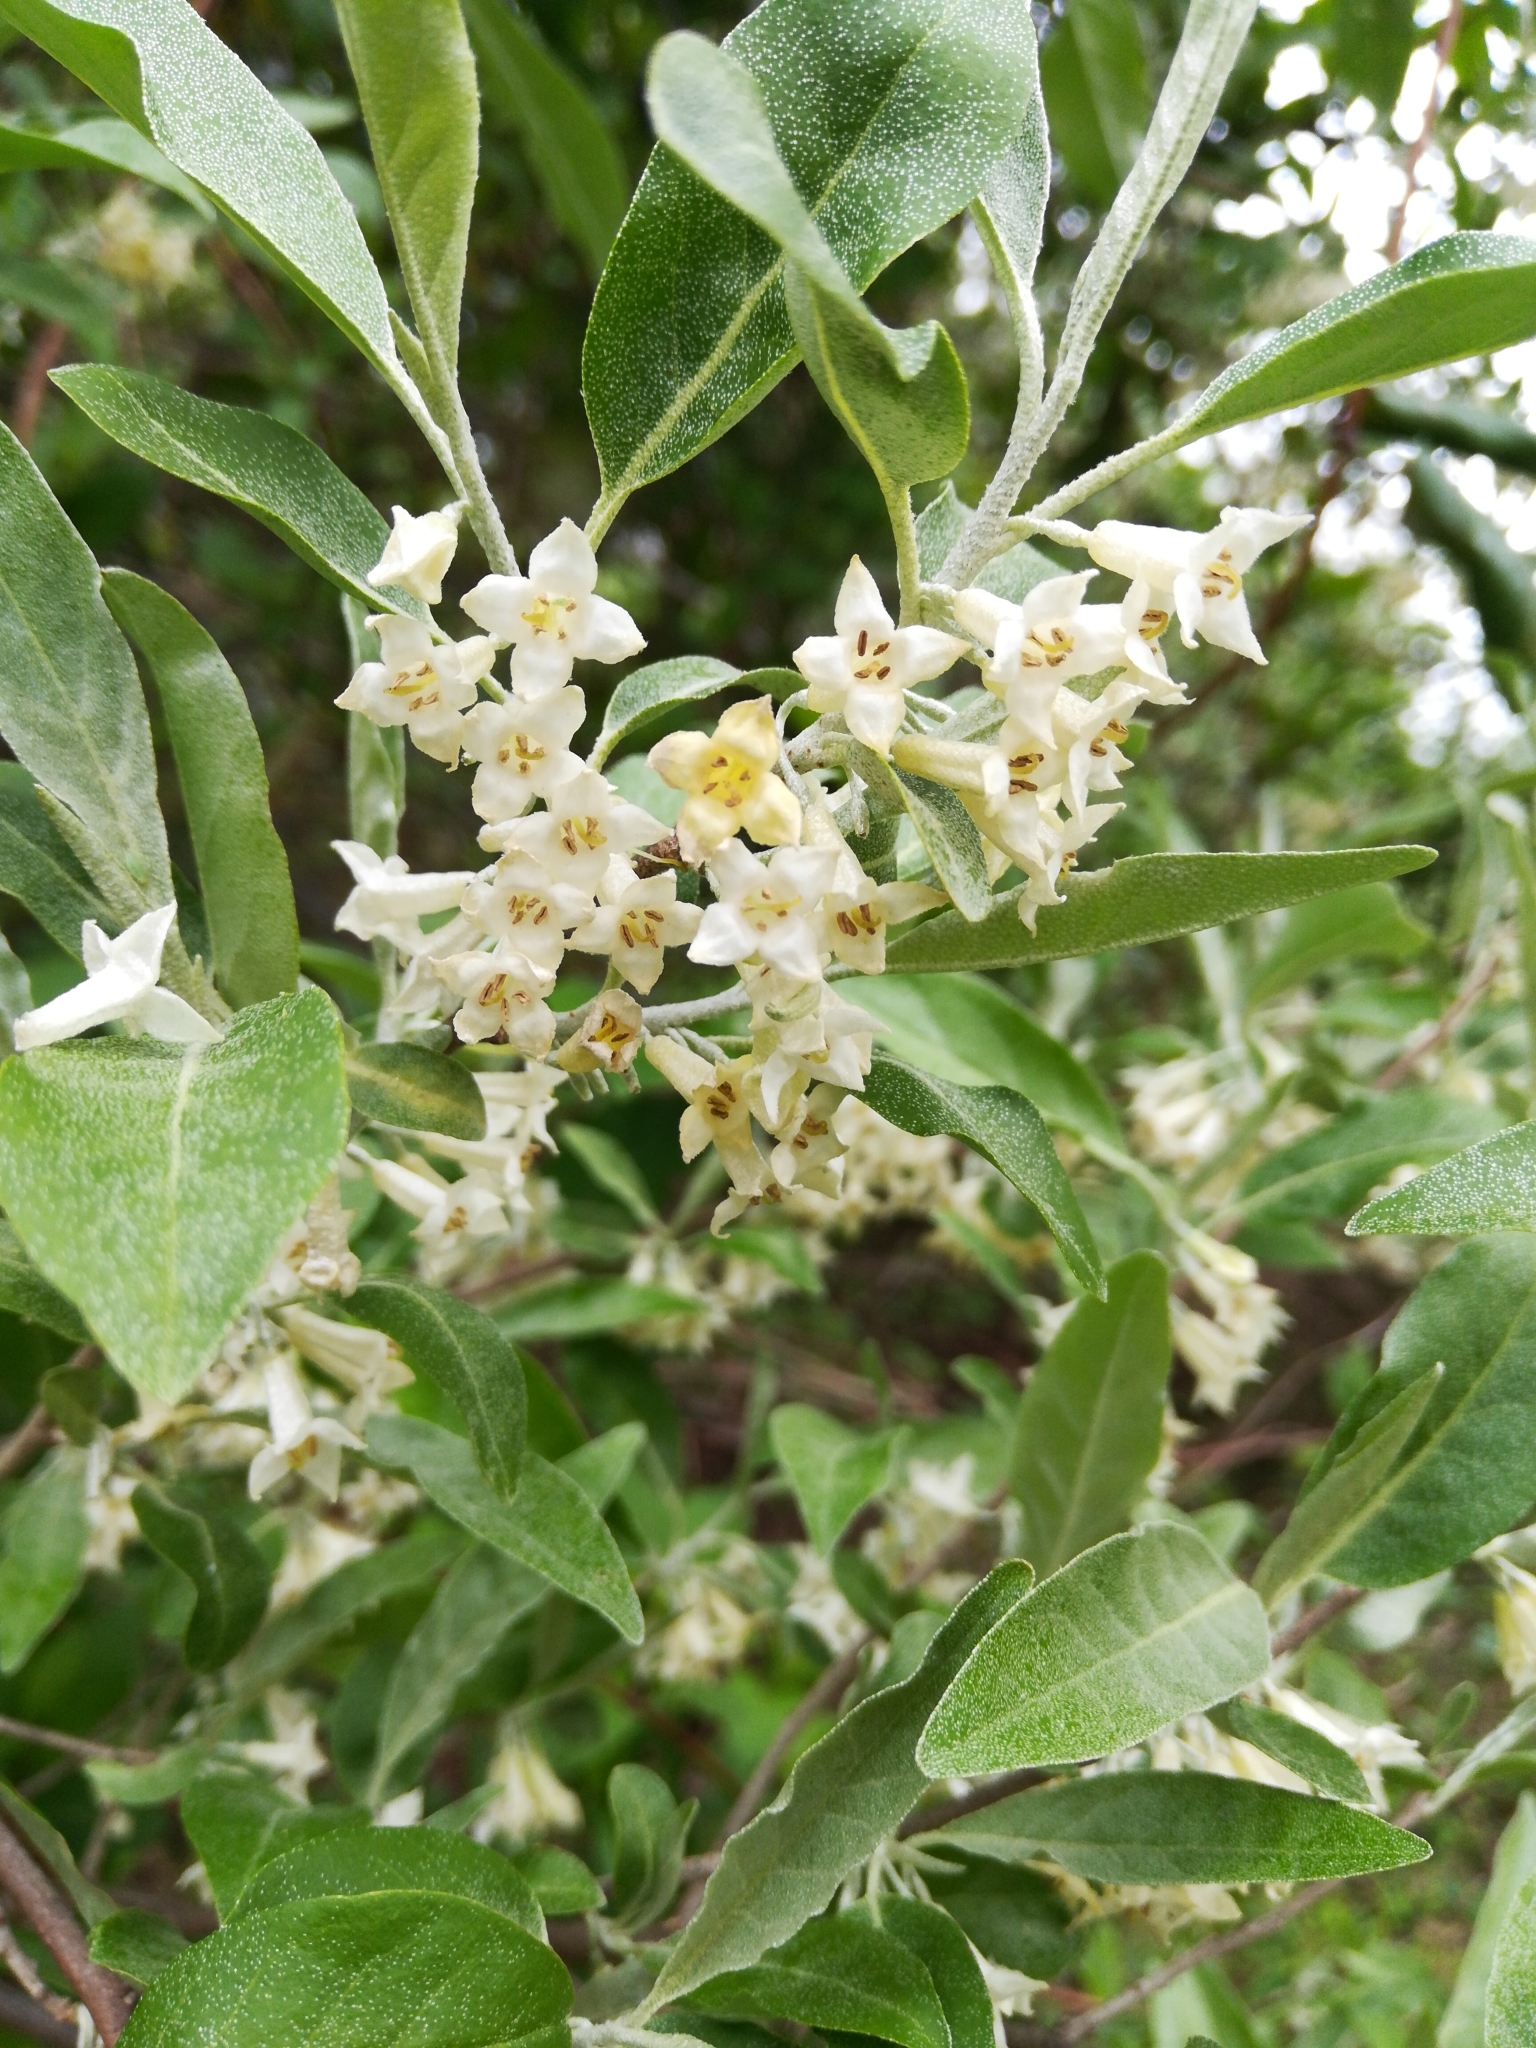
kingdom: Plantae
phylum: Tracheophyta
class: Magnoliopsida
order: Rosales
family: Elaeagnaceae
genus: Elaeagnus
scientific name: Elaeagnus umbellata
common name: Autumn olive
